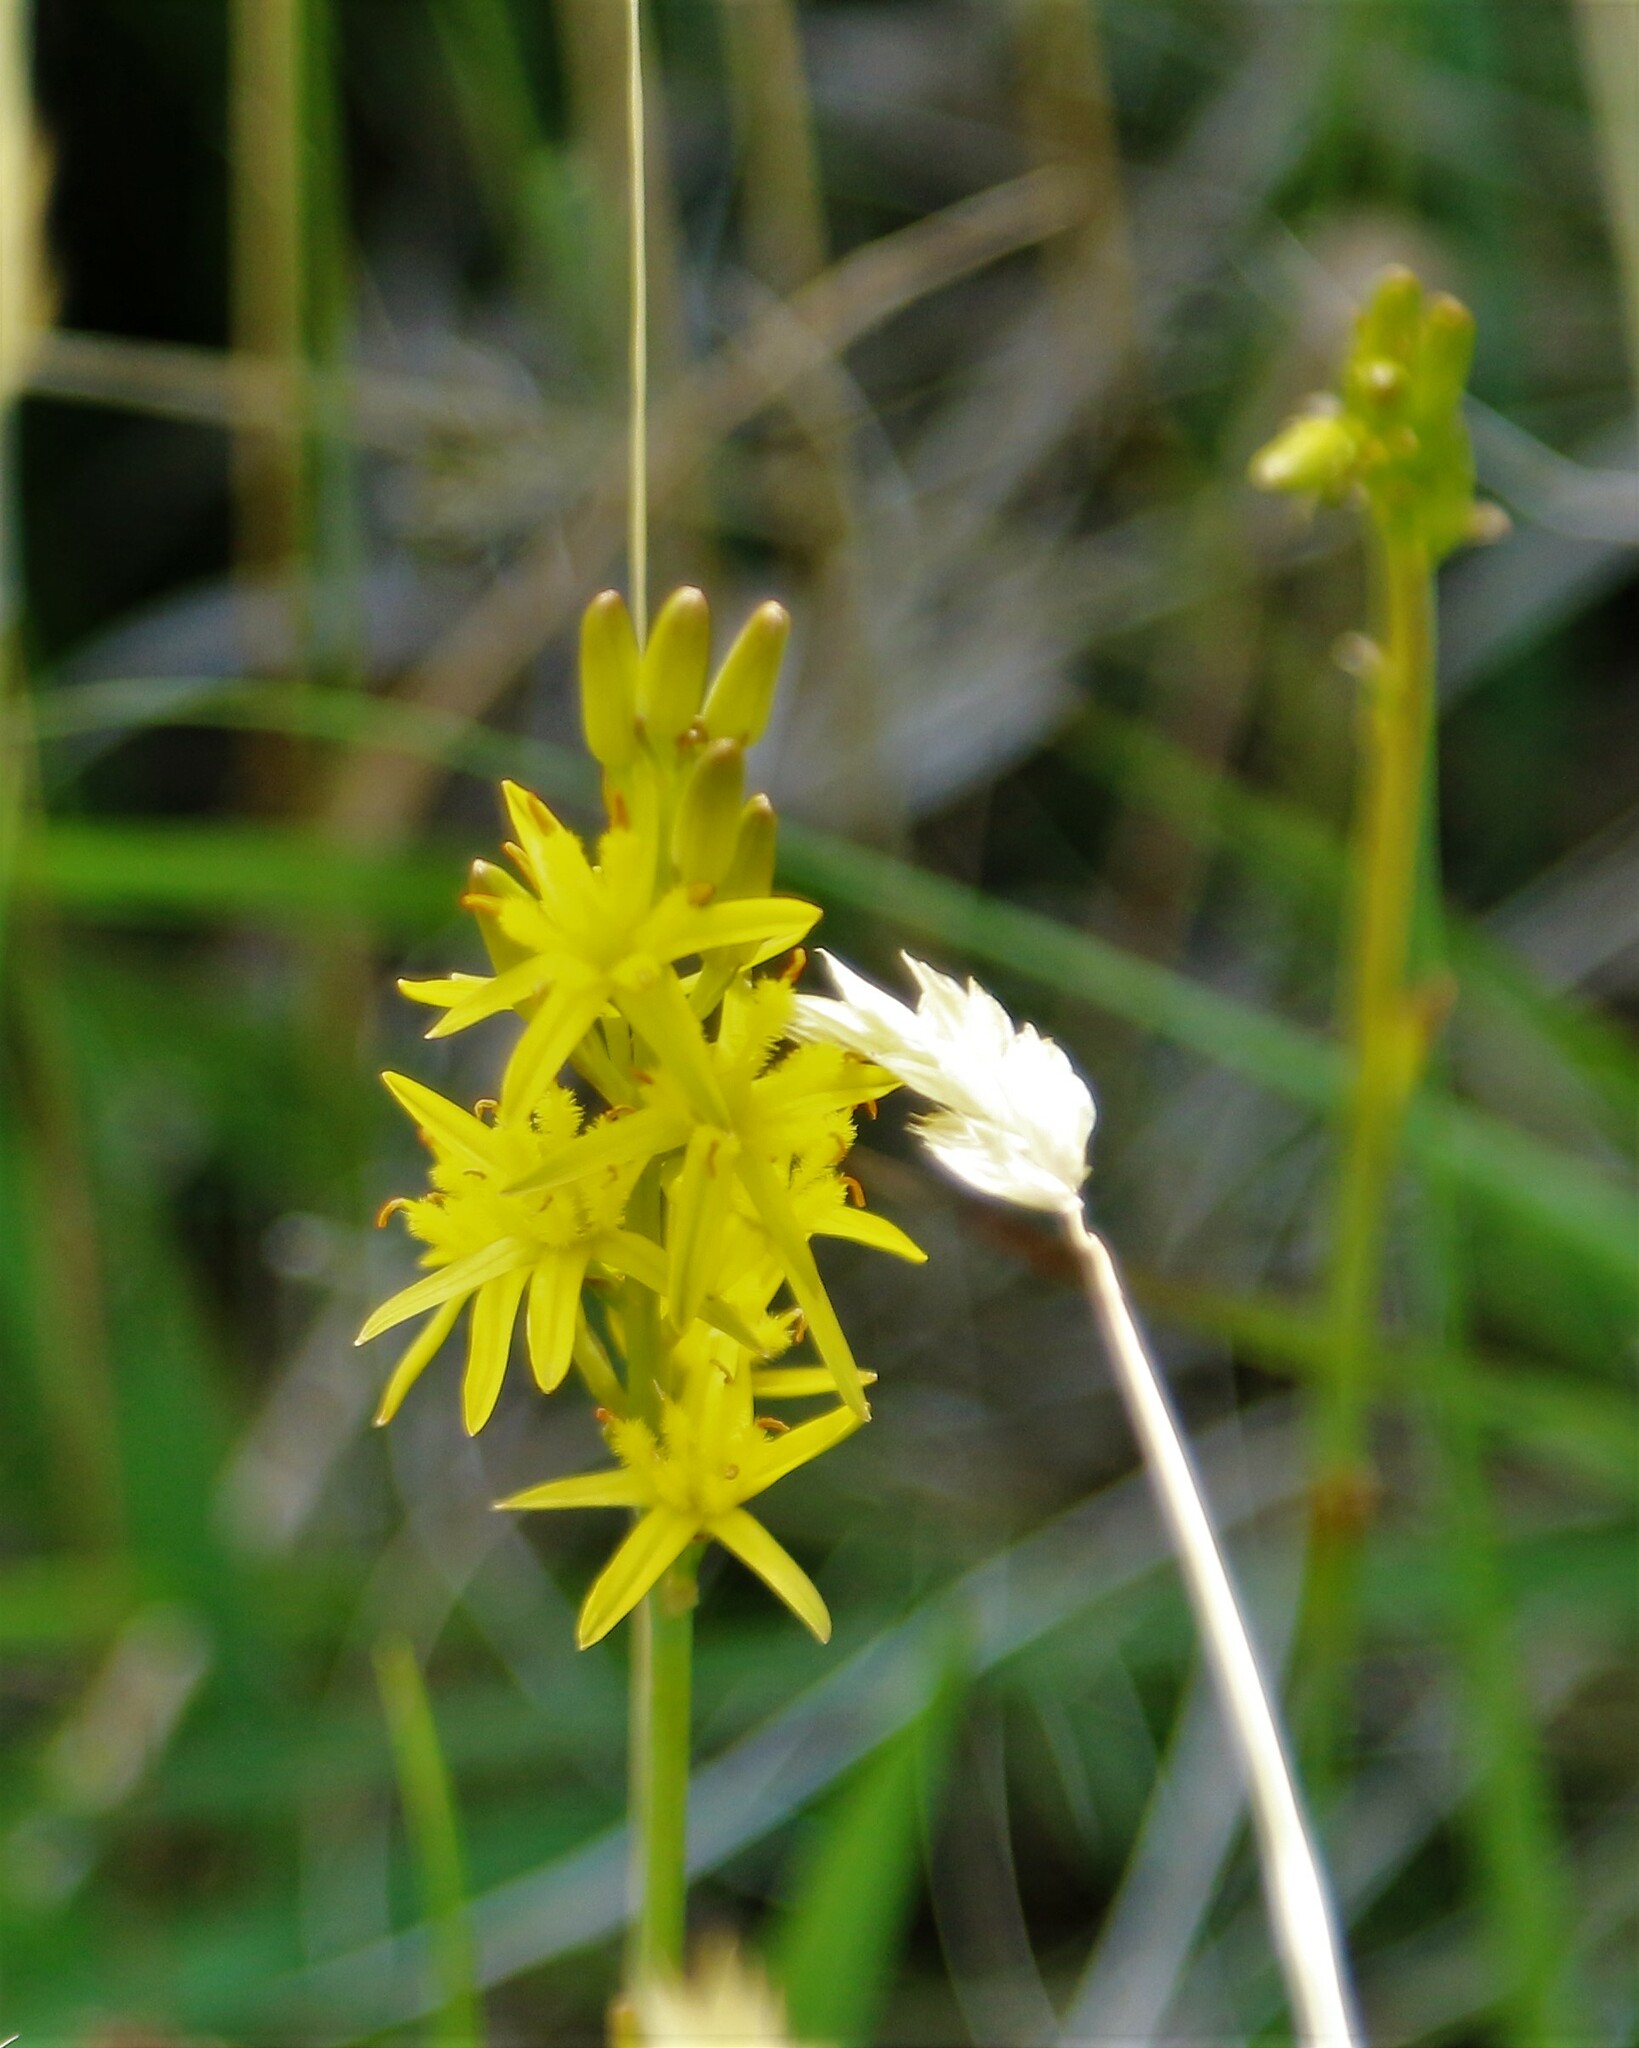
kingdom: Plantae
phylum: Tracheophyta
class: Liliopsida
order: Dioscoreales
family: Nartheciaceae
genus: Narthecium
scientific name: Narthecium ossifragum
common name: Bog asphodel
